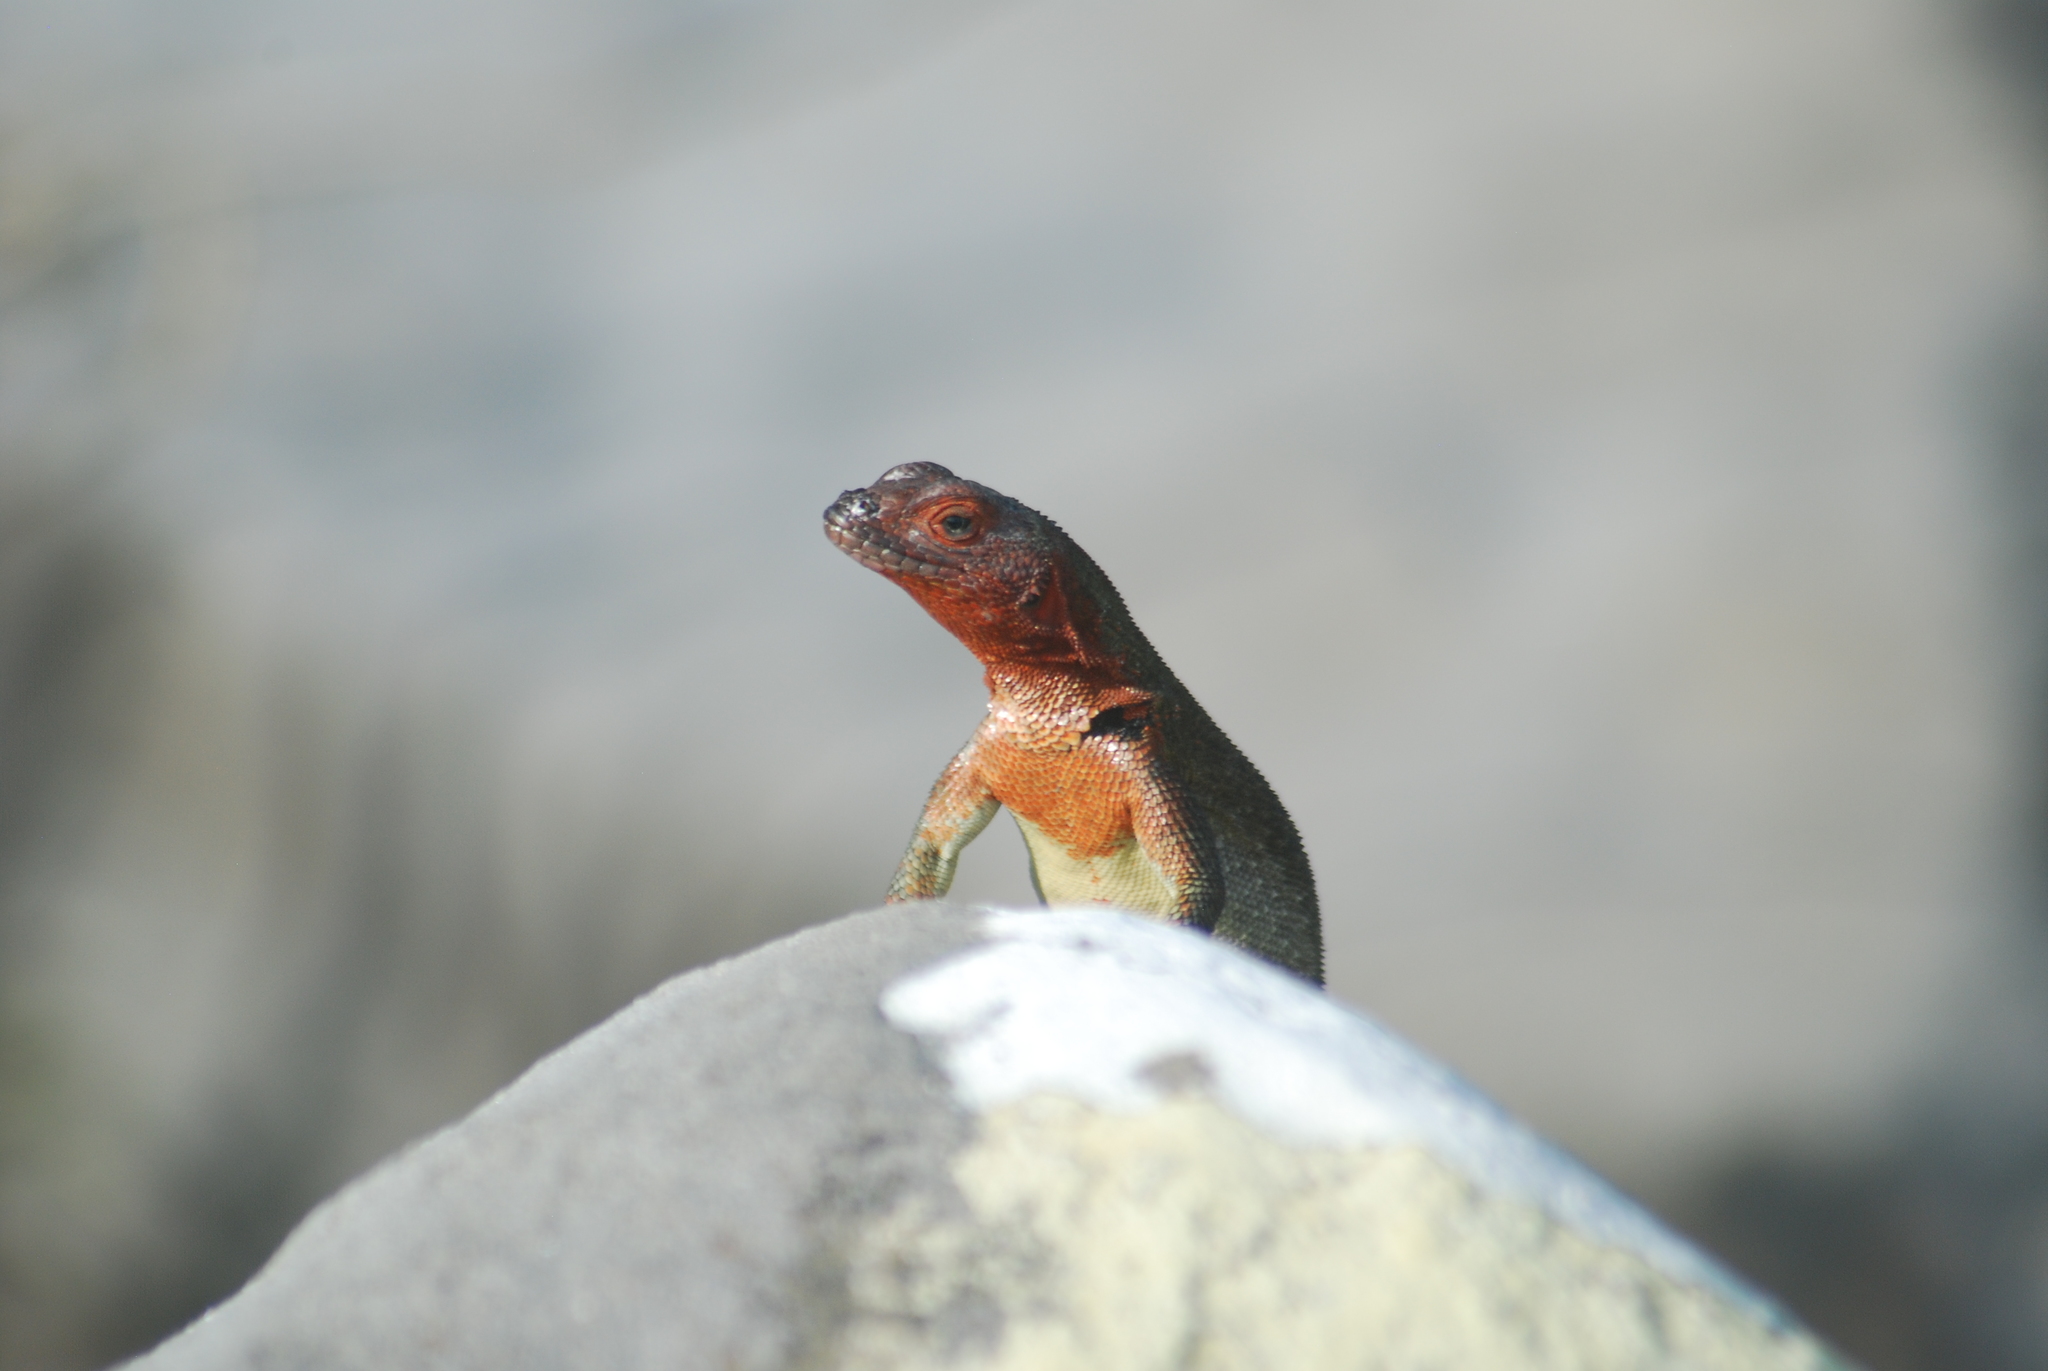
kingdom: Animalia
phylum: Chordata
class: Squamata
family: Tropiduridae
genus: Microlophus
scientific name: Microlophus delanonis
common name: Hood lava lizard
